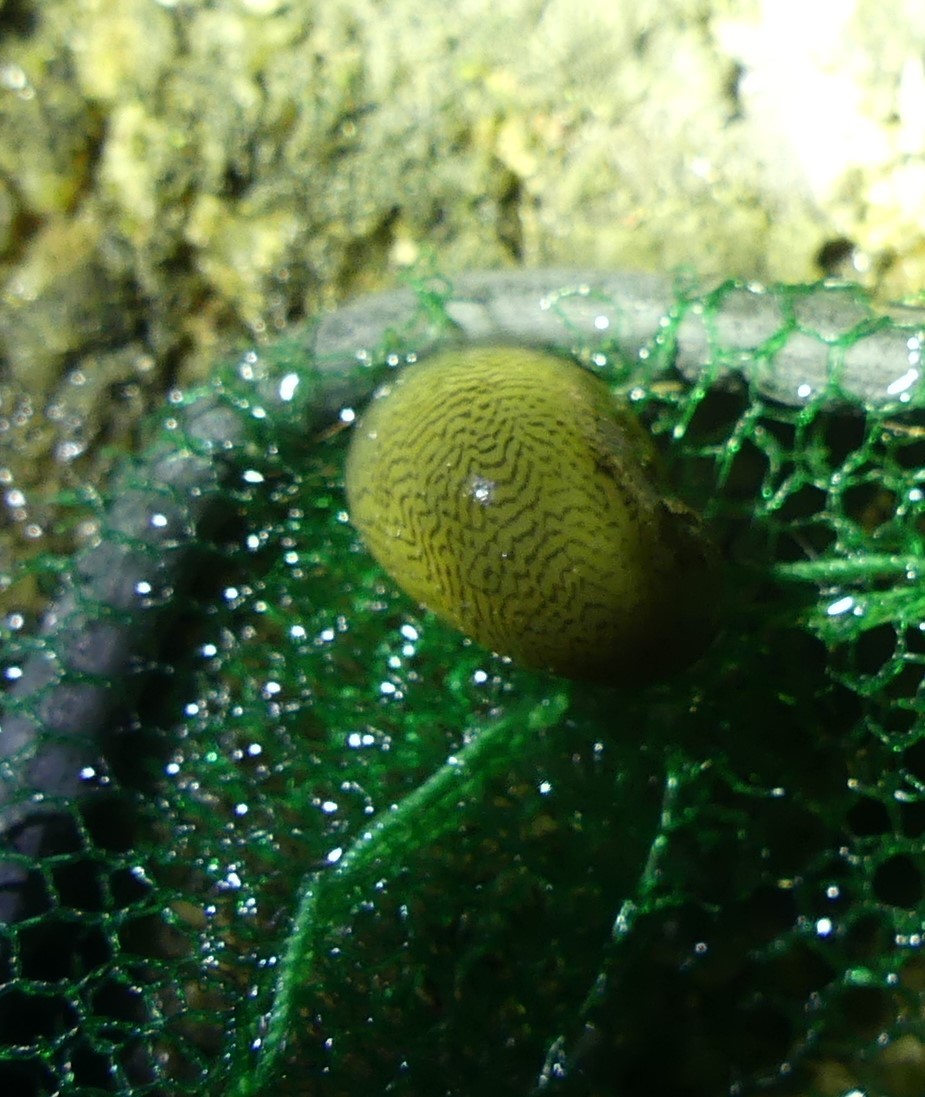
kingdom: Animalia
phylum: Mollusca
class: Gastropoda
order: Cycloneritida
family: Neritidae
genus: Theodoxus
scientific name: Theodoxus fluviatilis
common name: River nerite
